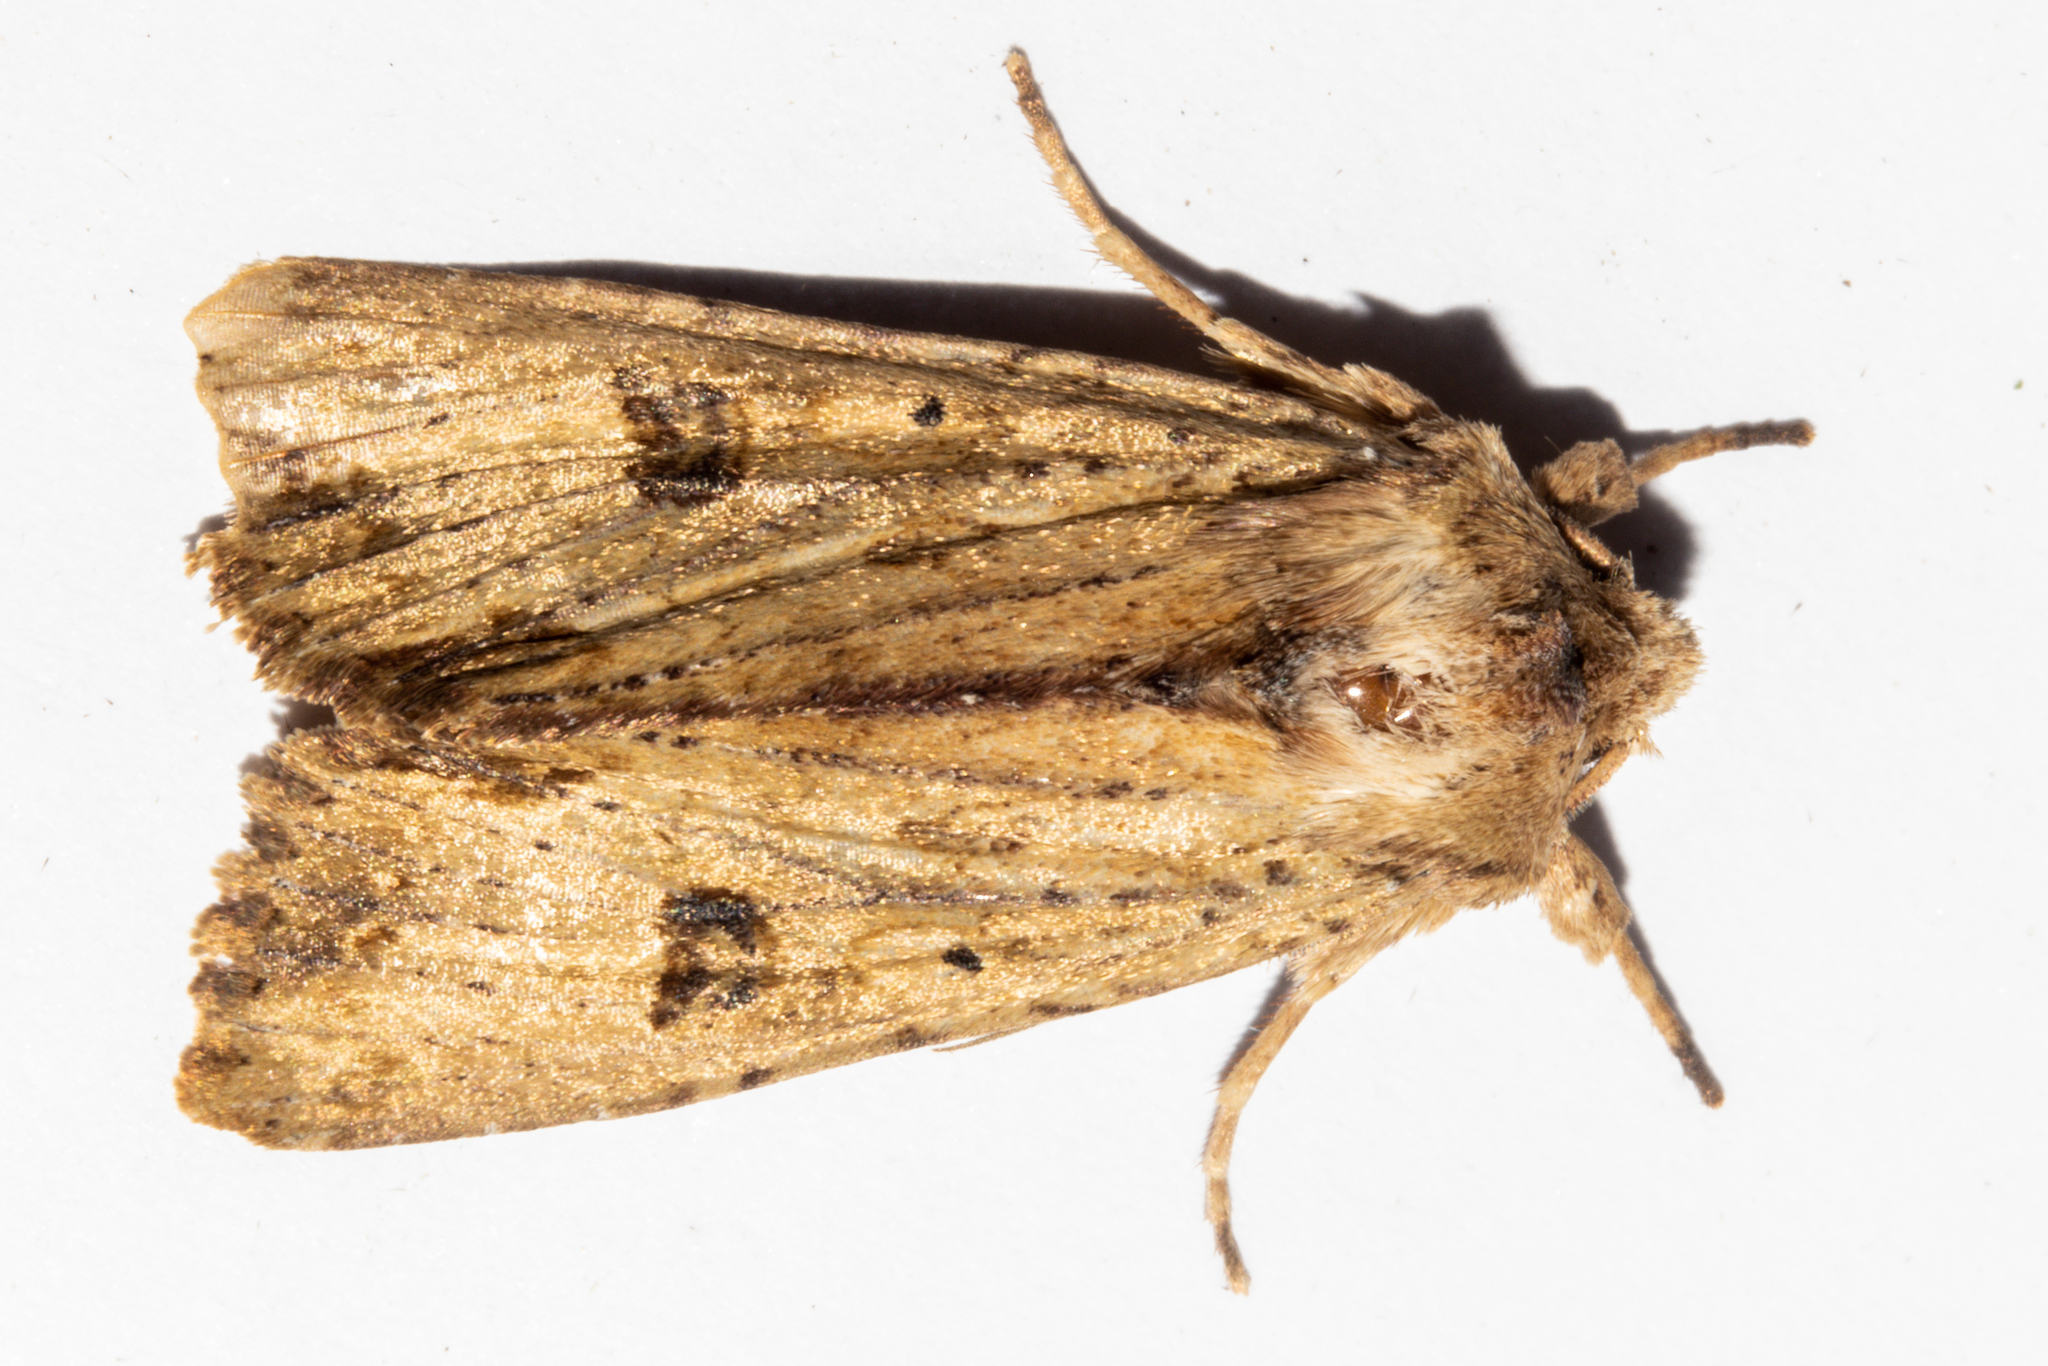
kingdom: Animalia
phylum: Arthropoda
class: Insecta
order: Lepidoptera
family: Noctuidae
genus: Ichneutica
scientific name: Ichneutica
